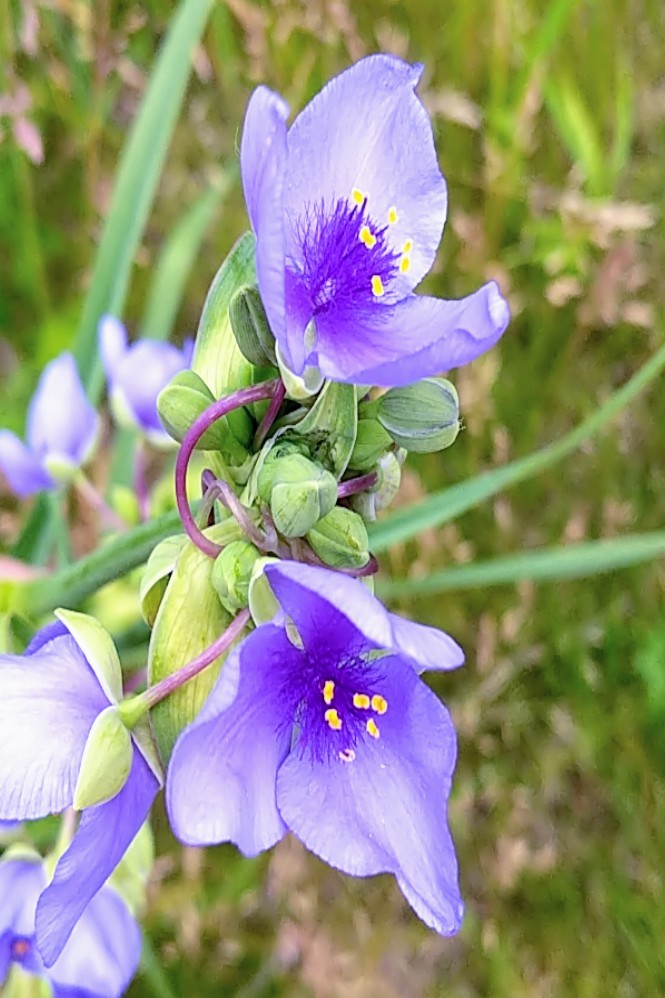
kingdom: Plantae
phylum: Tracheophyta
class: Liliopsida
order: Commelinales
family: Commelinaceae
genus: Tradescantia
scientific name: Tradescantia ohiensis
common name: Ohio spiderwort
